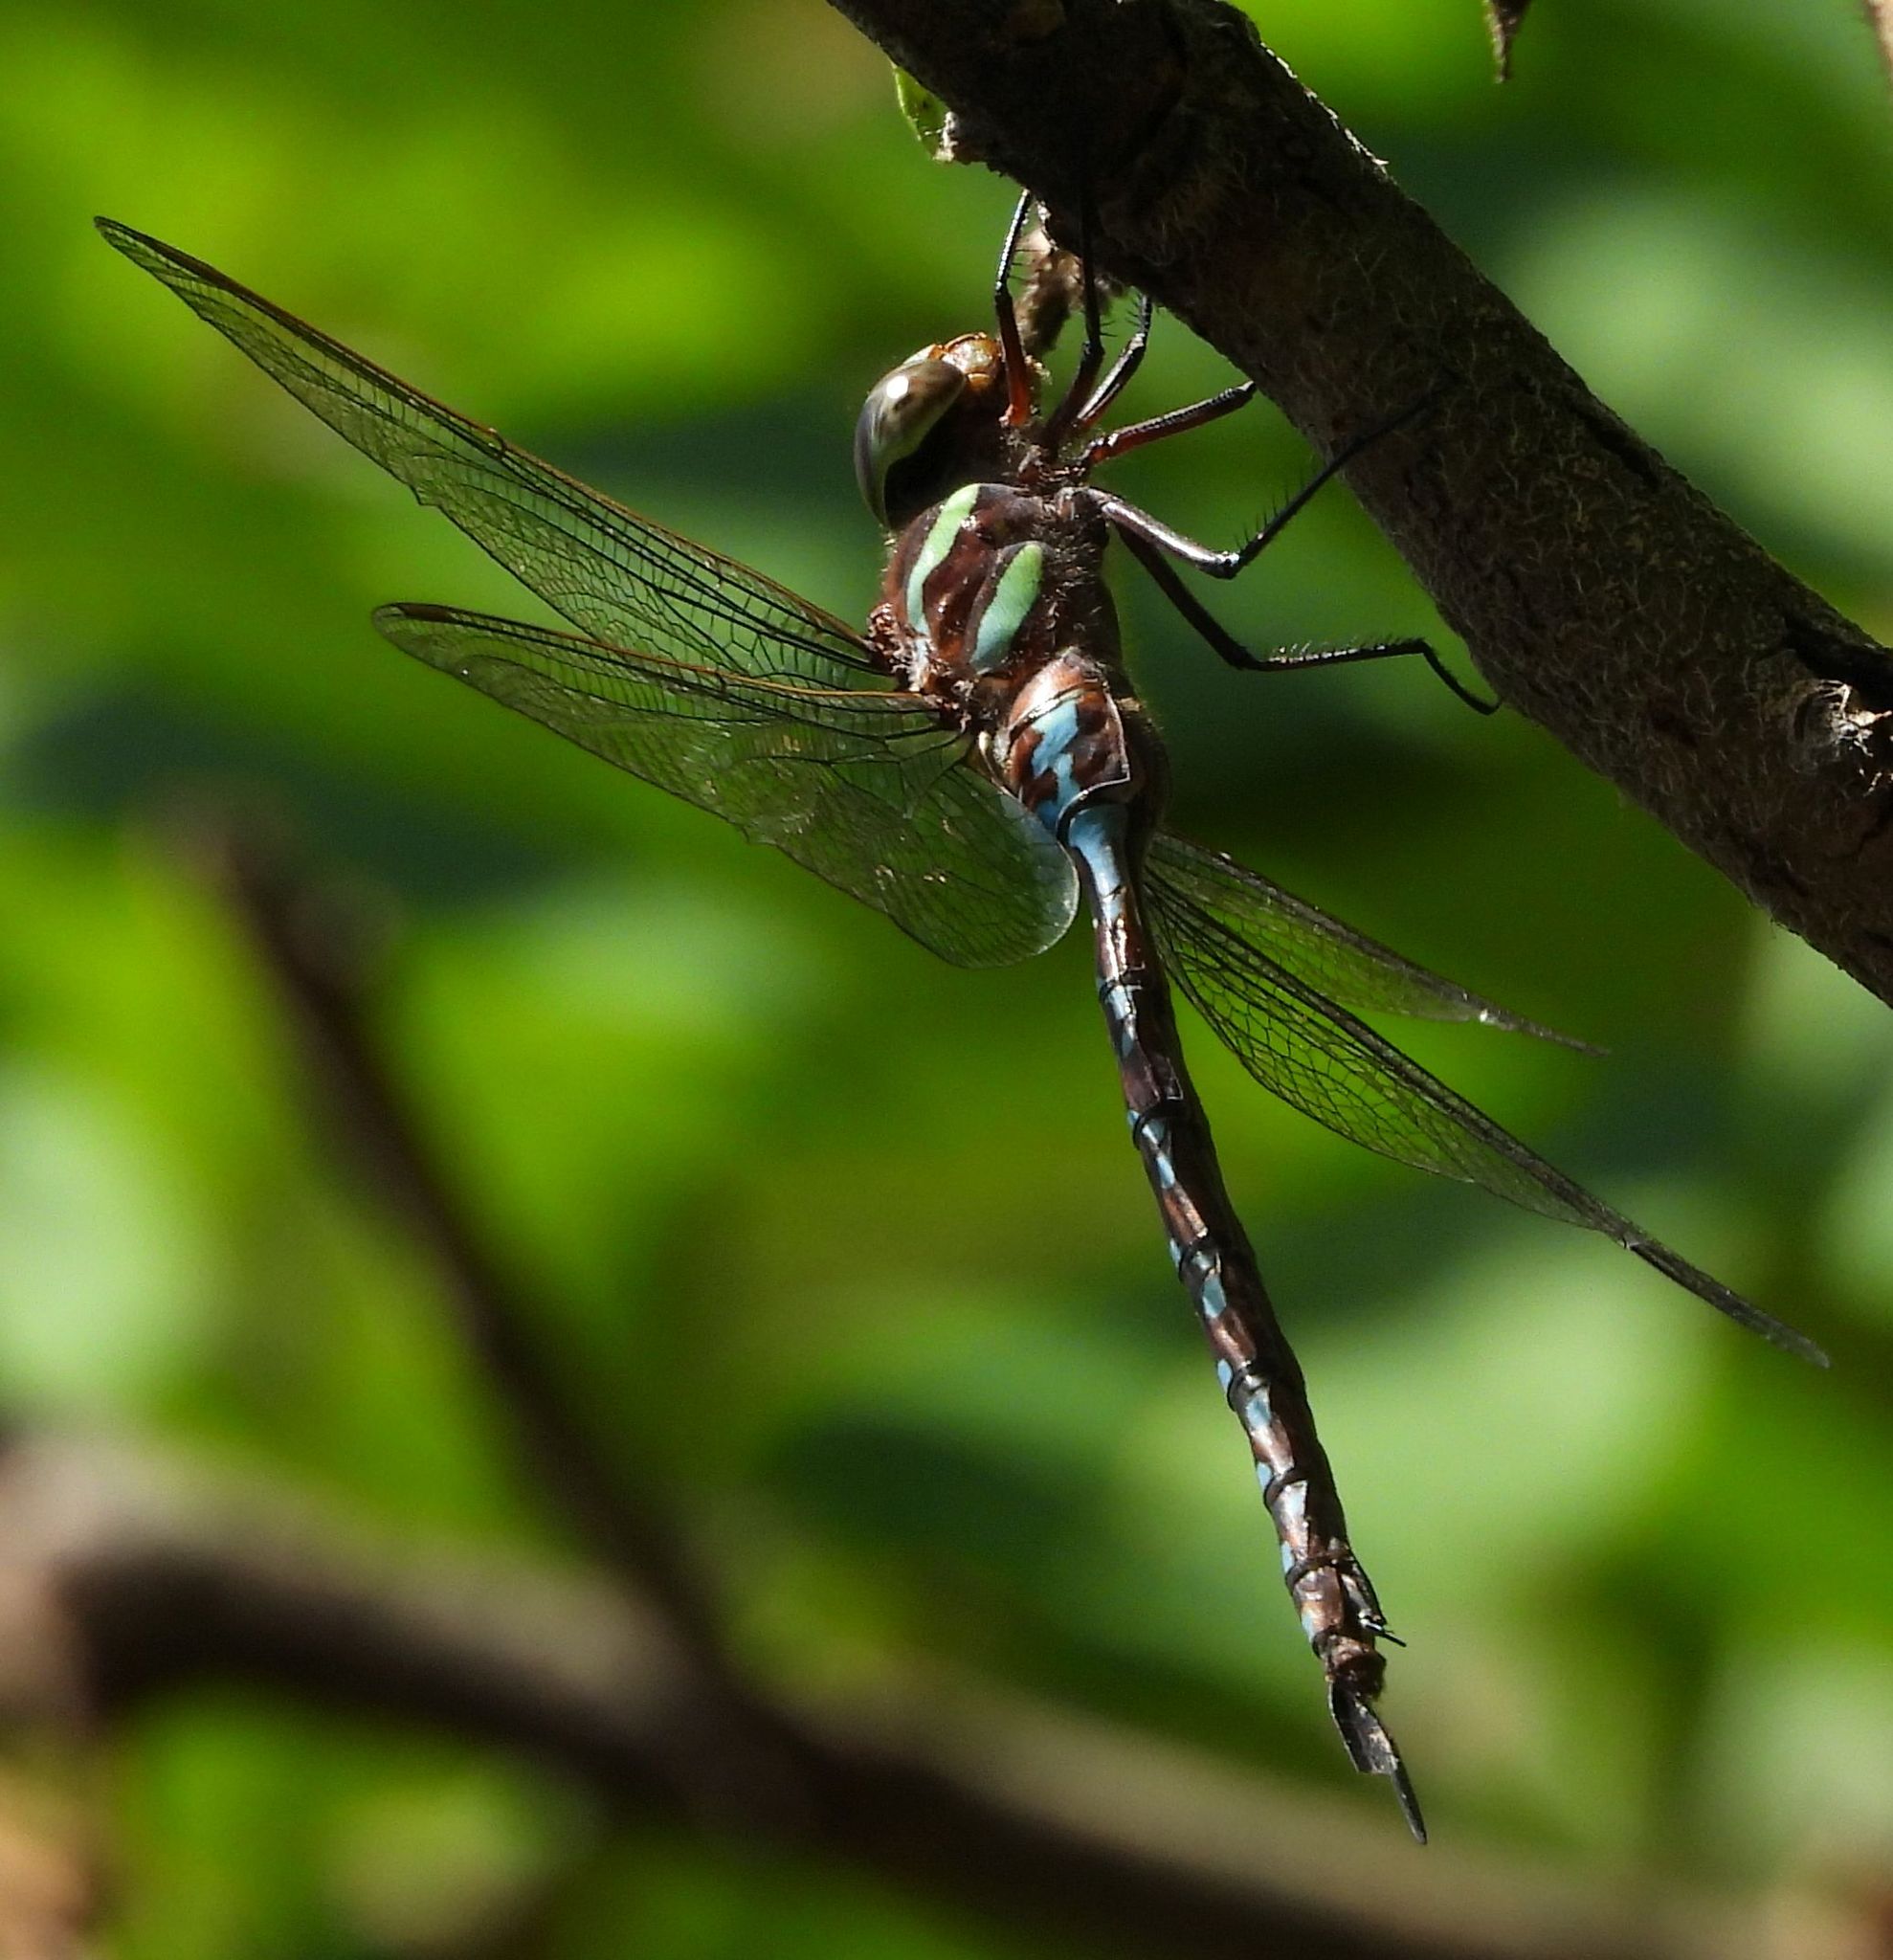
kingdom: Animalia
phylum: Arthropoda
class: Insecta
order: Odonata
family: Aeshnidae
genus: Aeshna
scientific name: Aeshna tuberculifera
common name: Aeschne à tubercules
